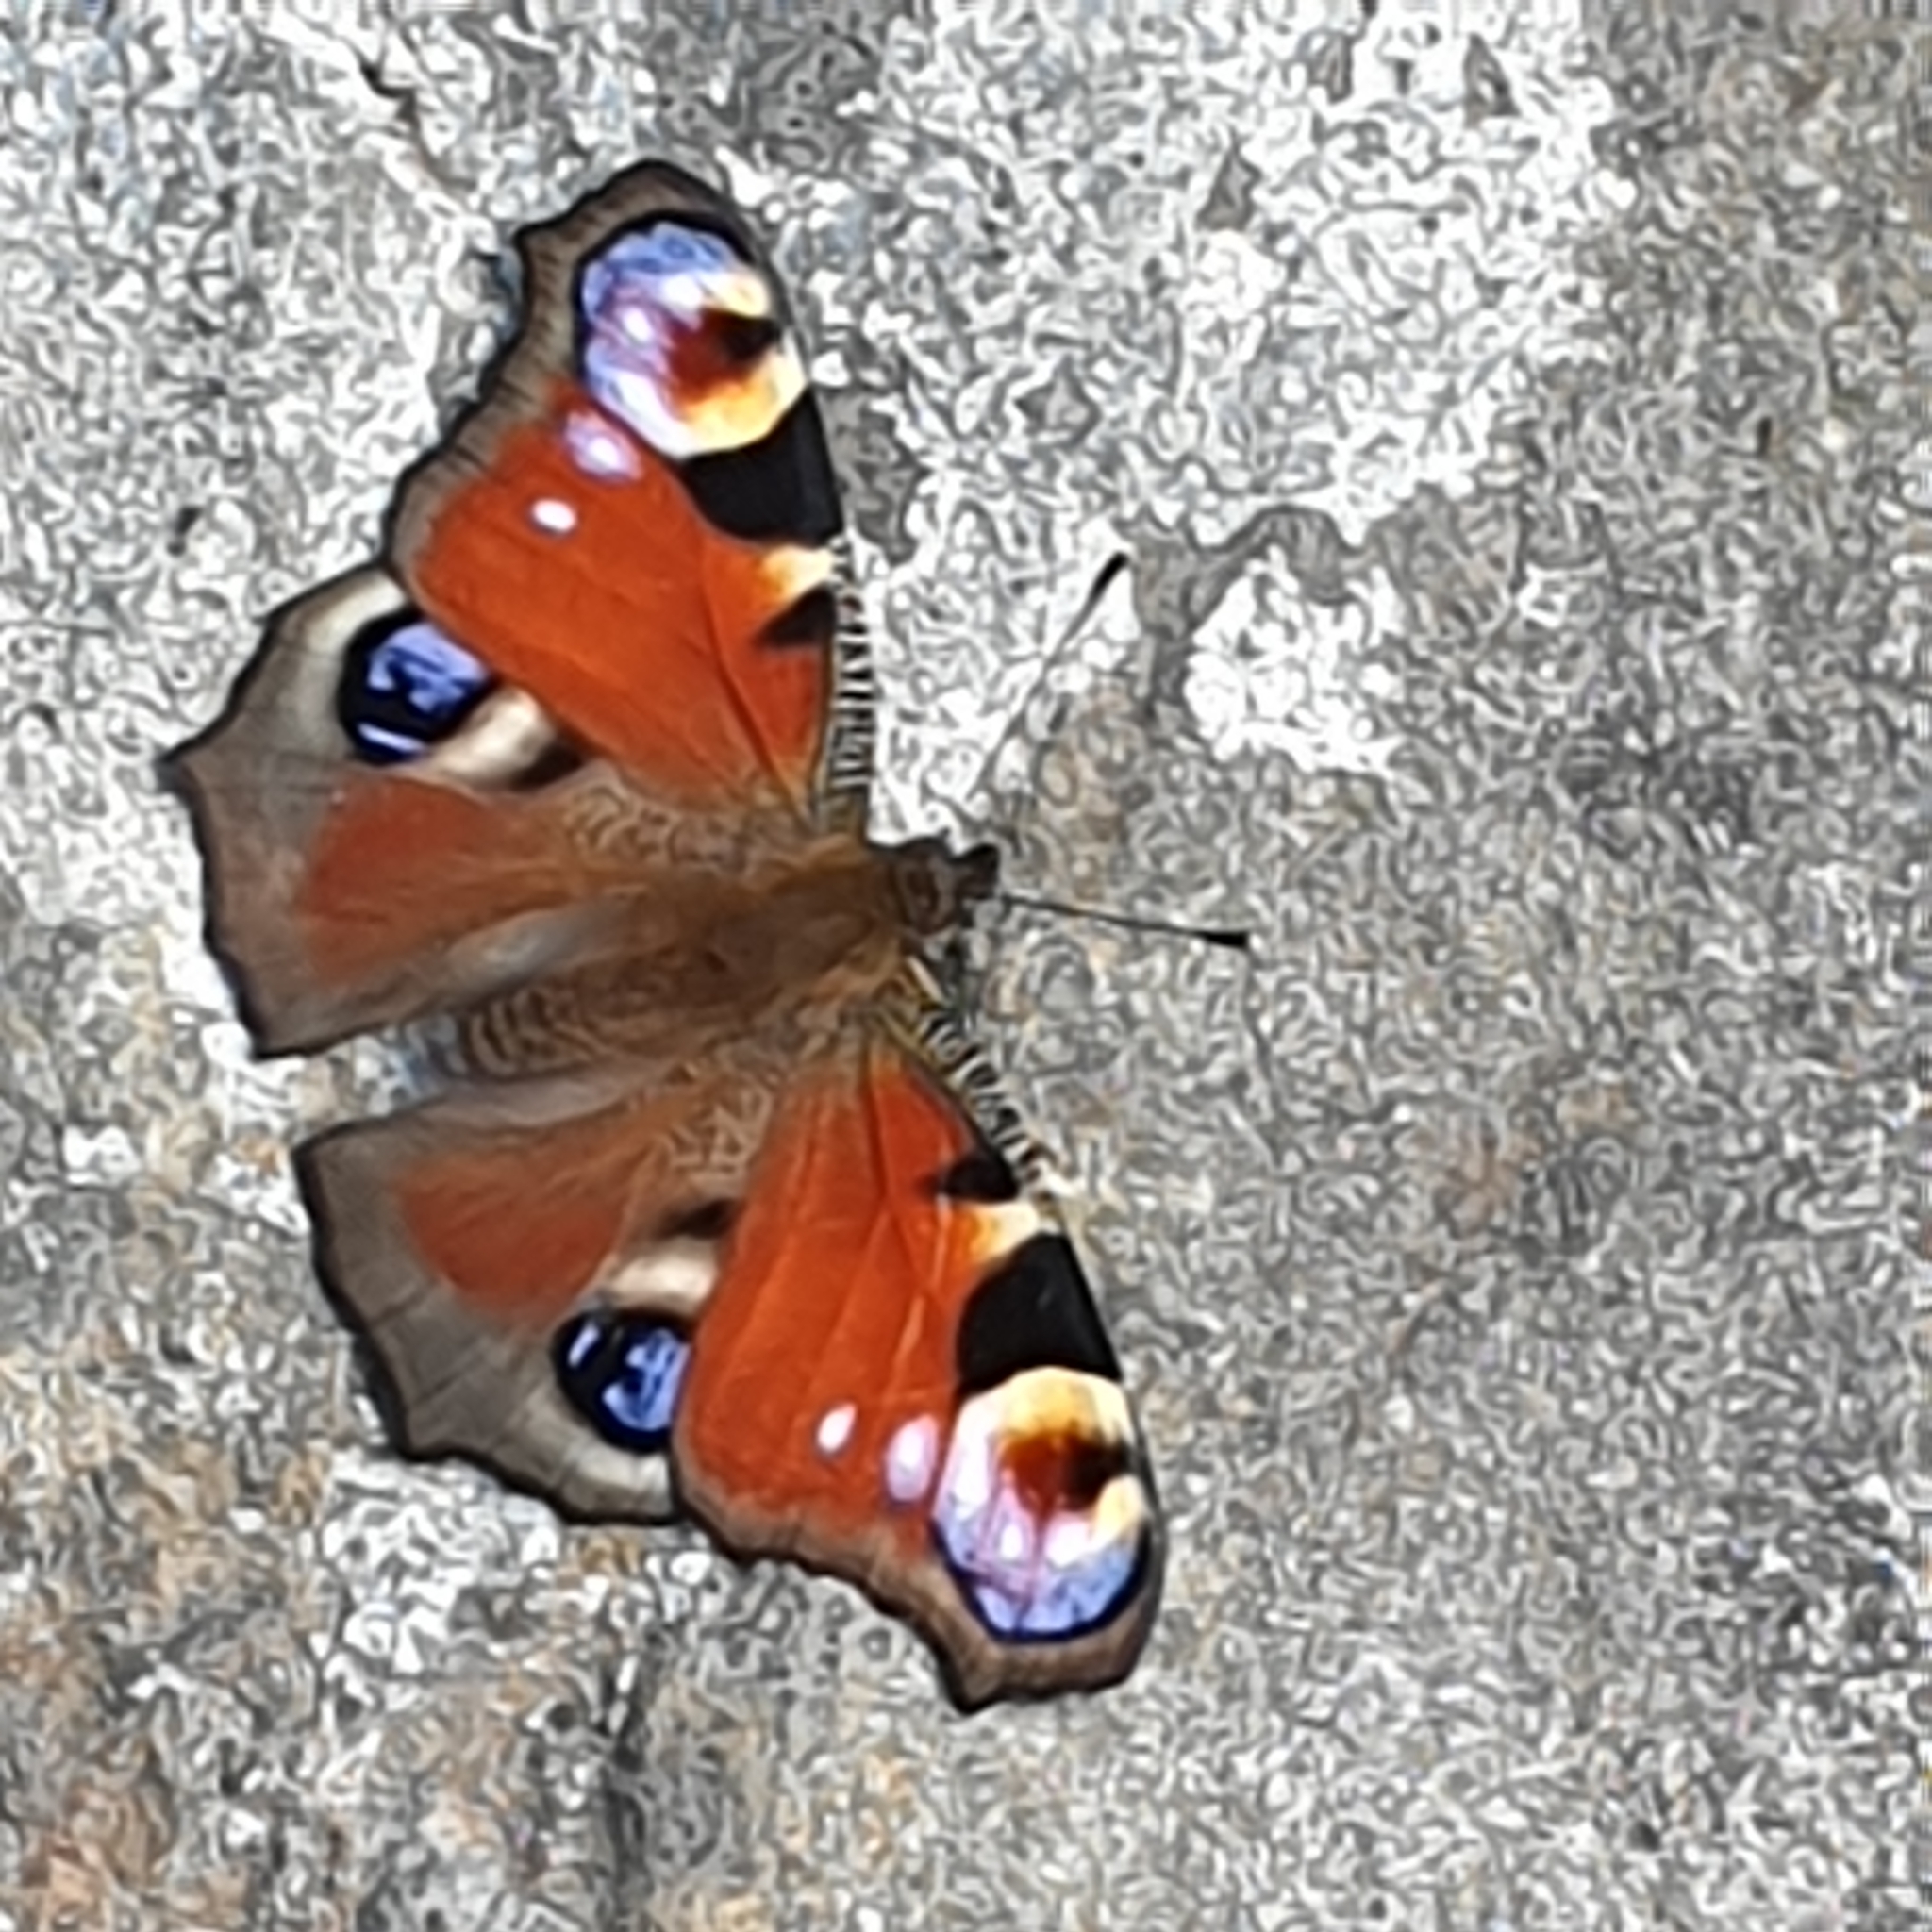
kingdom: Animalia
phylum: Arthropoda
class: Insecta
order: Lepidoptera
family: Nymphalidae
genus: Aglais
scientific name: Aglais io
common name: Peacock
